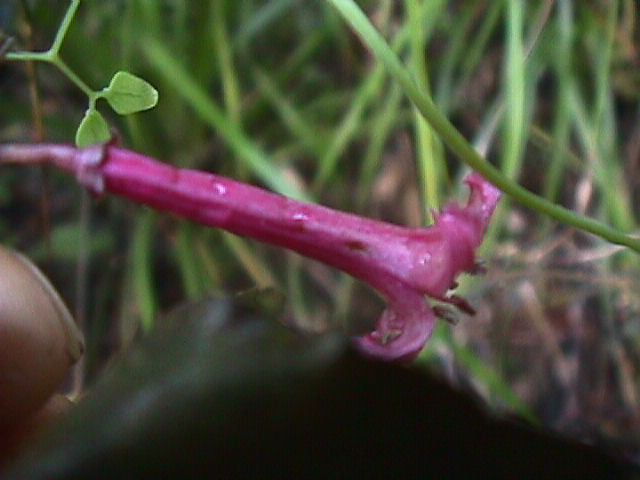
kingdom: Plantae
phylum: Tracheophyta
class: Magnoliopsida
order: Asterales
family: Alseuosmiaceae
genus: Alseuosmia
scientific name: Alseuosmia macrophylla
